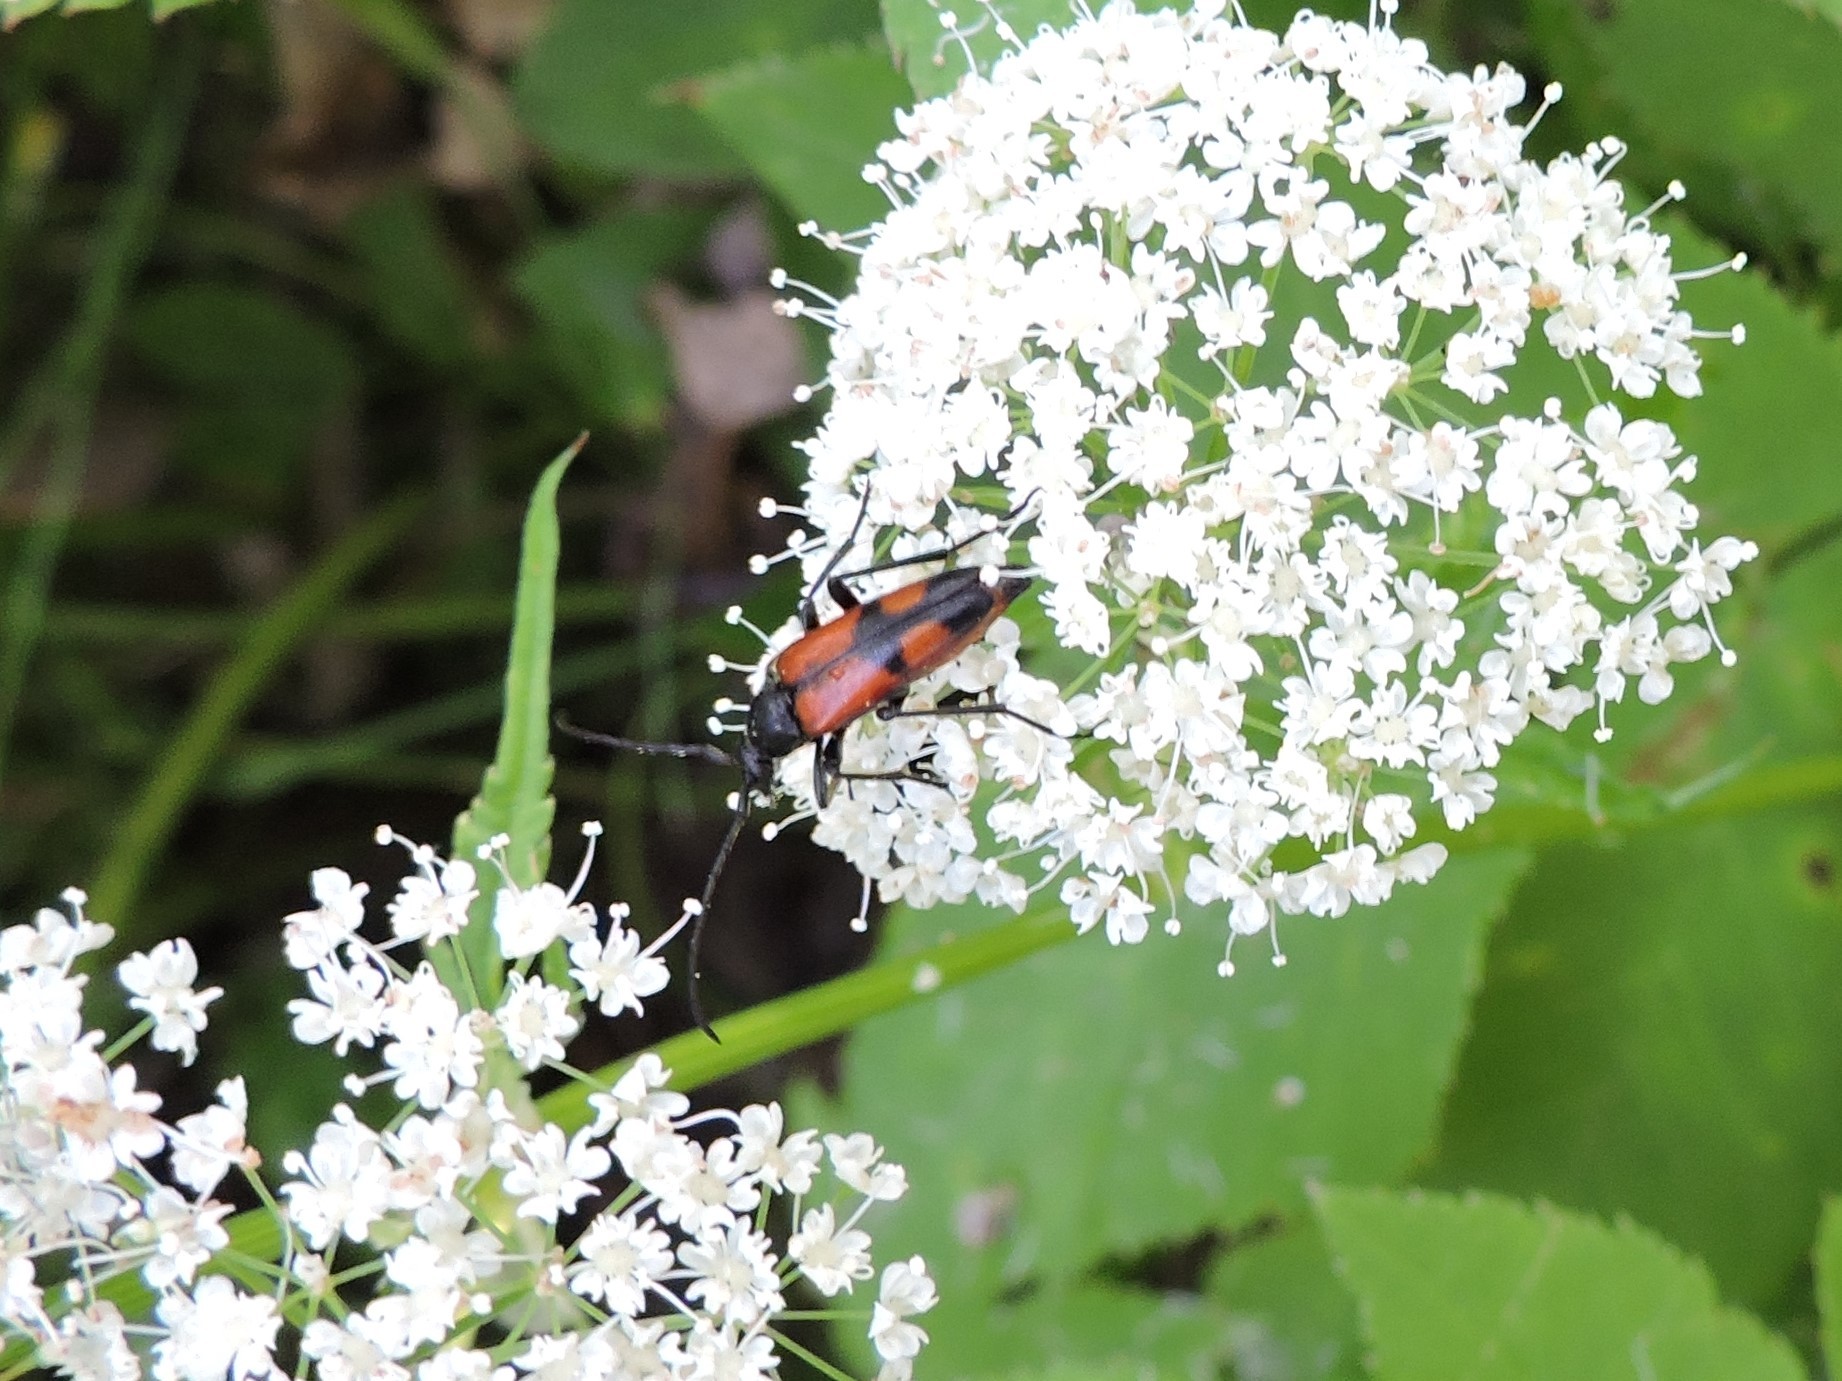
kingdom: Animalia
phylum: Arthropoda
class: Insecta
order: Coleoptera
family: Cerambycidae
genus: Stenurella
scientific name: Stenurella bifasciata
